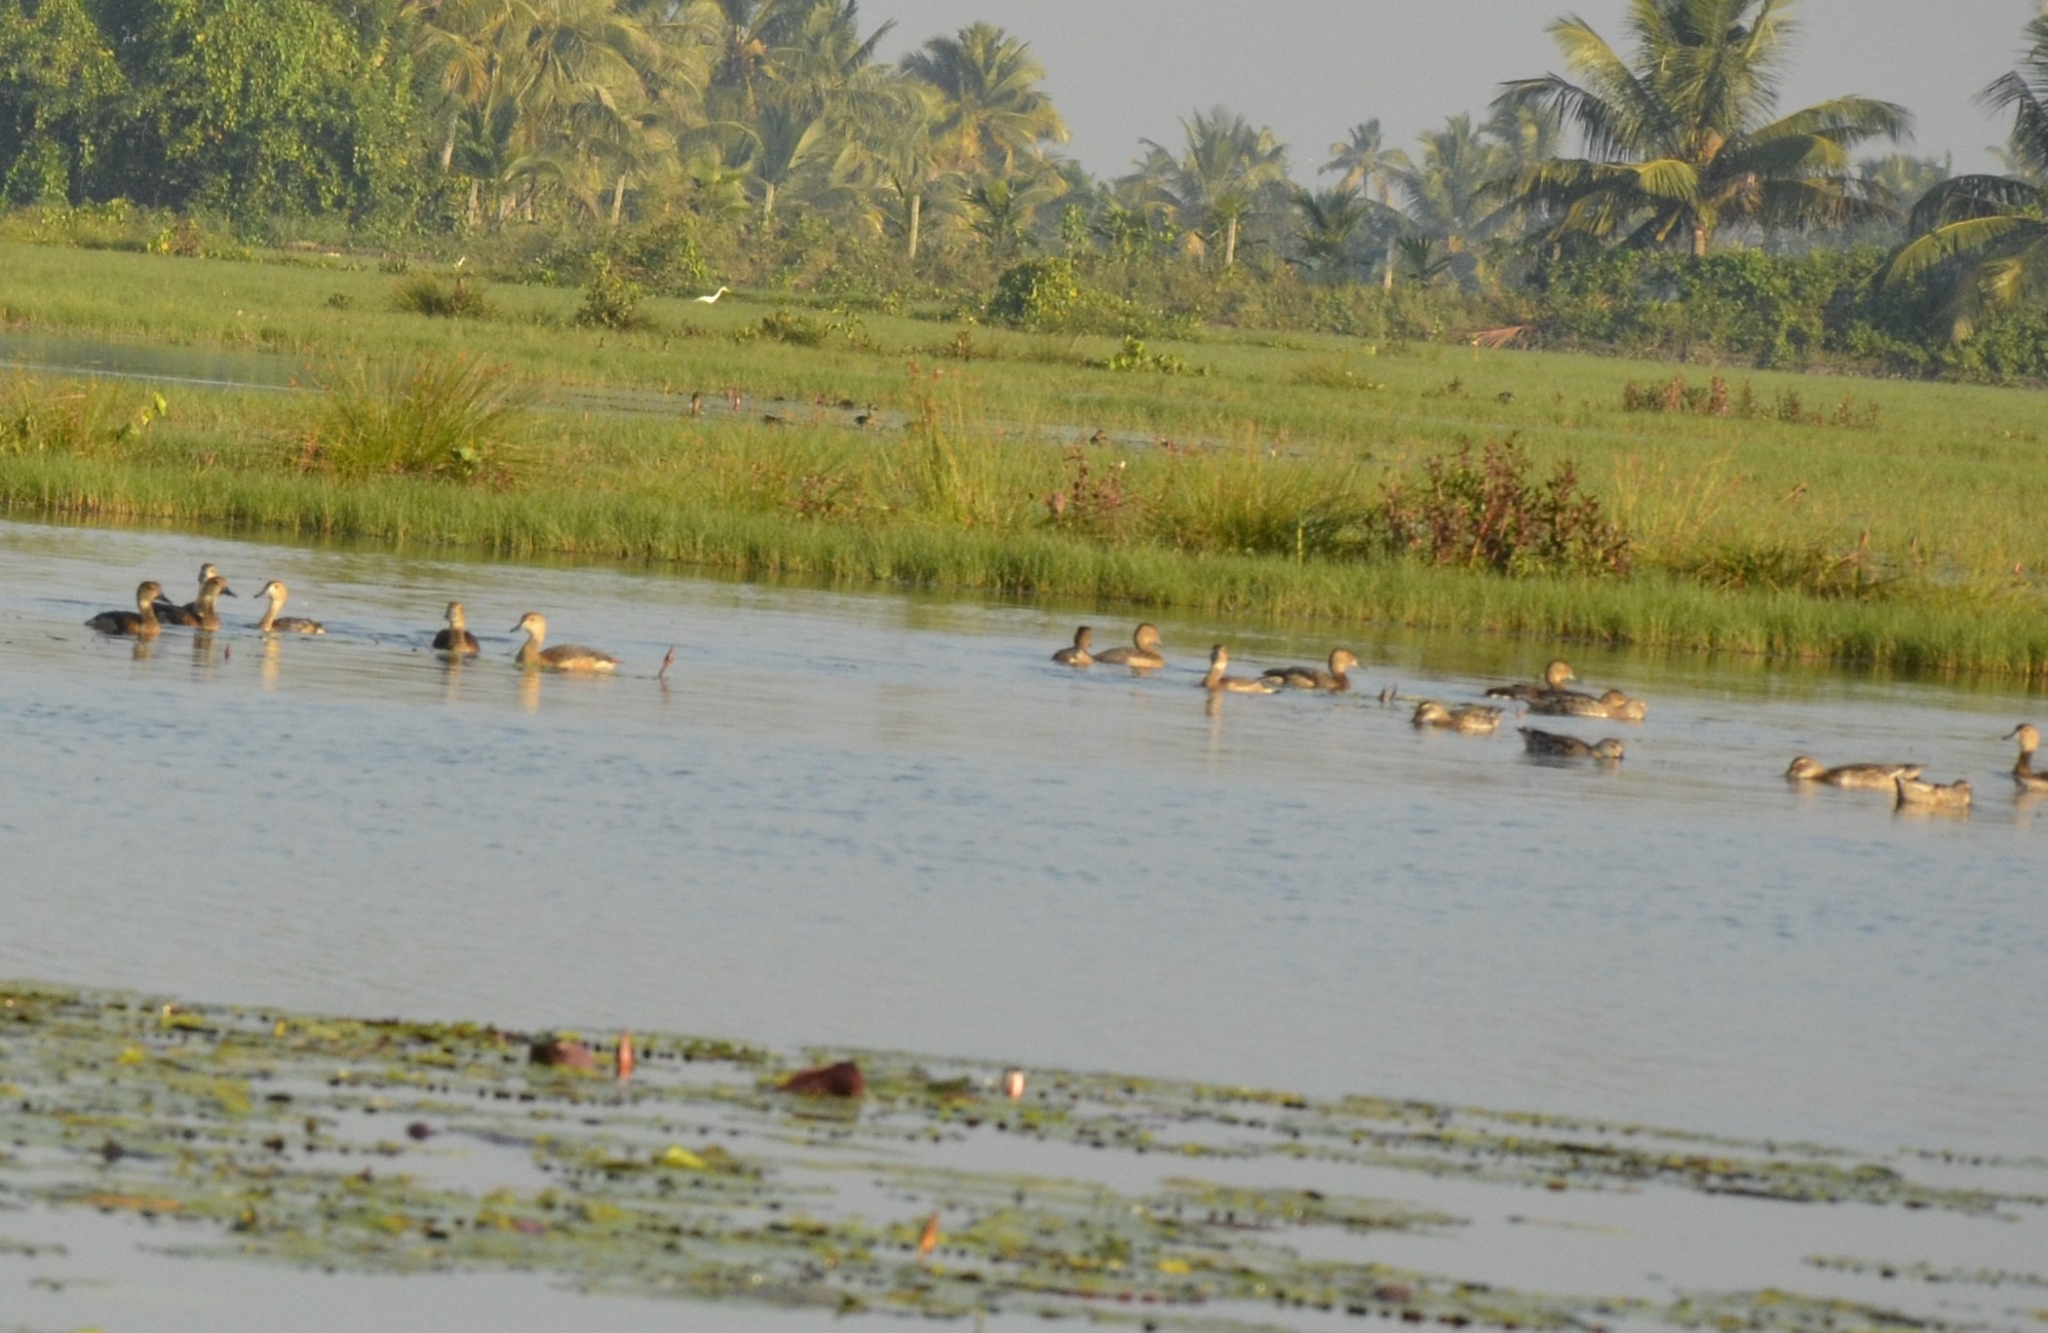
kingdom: Animalia
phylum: Chordata
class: Aves
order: Anseriformes
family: Anatidae
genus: Dendrocygna
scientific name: Dendrocygna javanica
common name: Lesser whistling-duck
